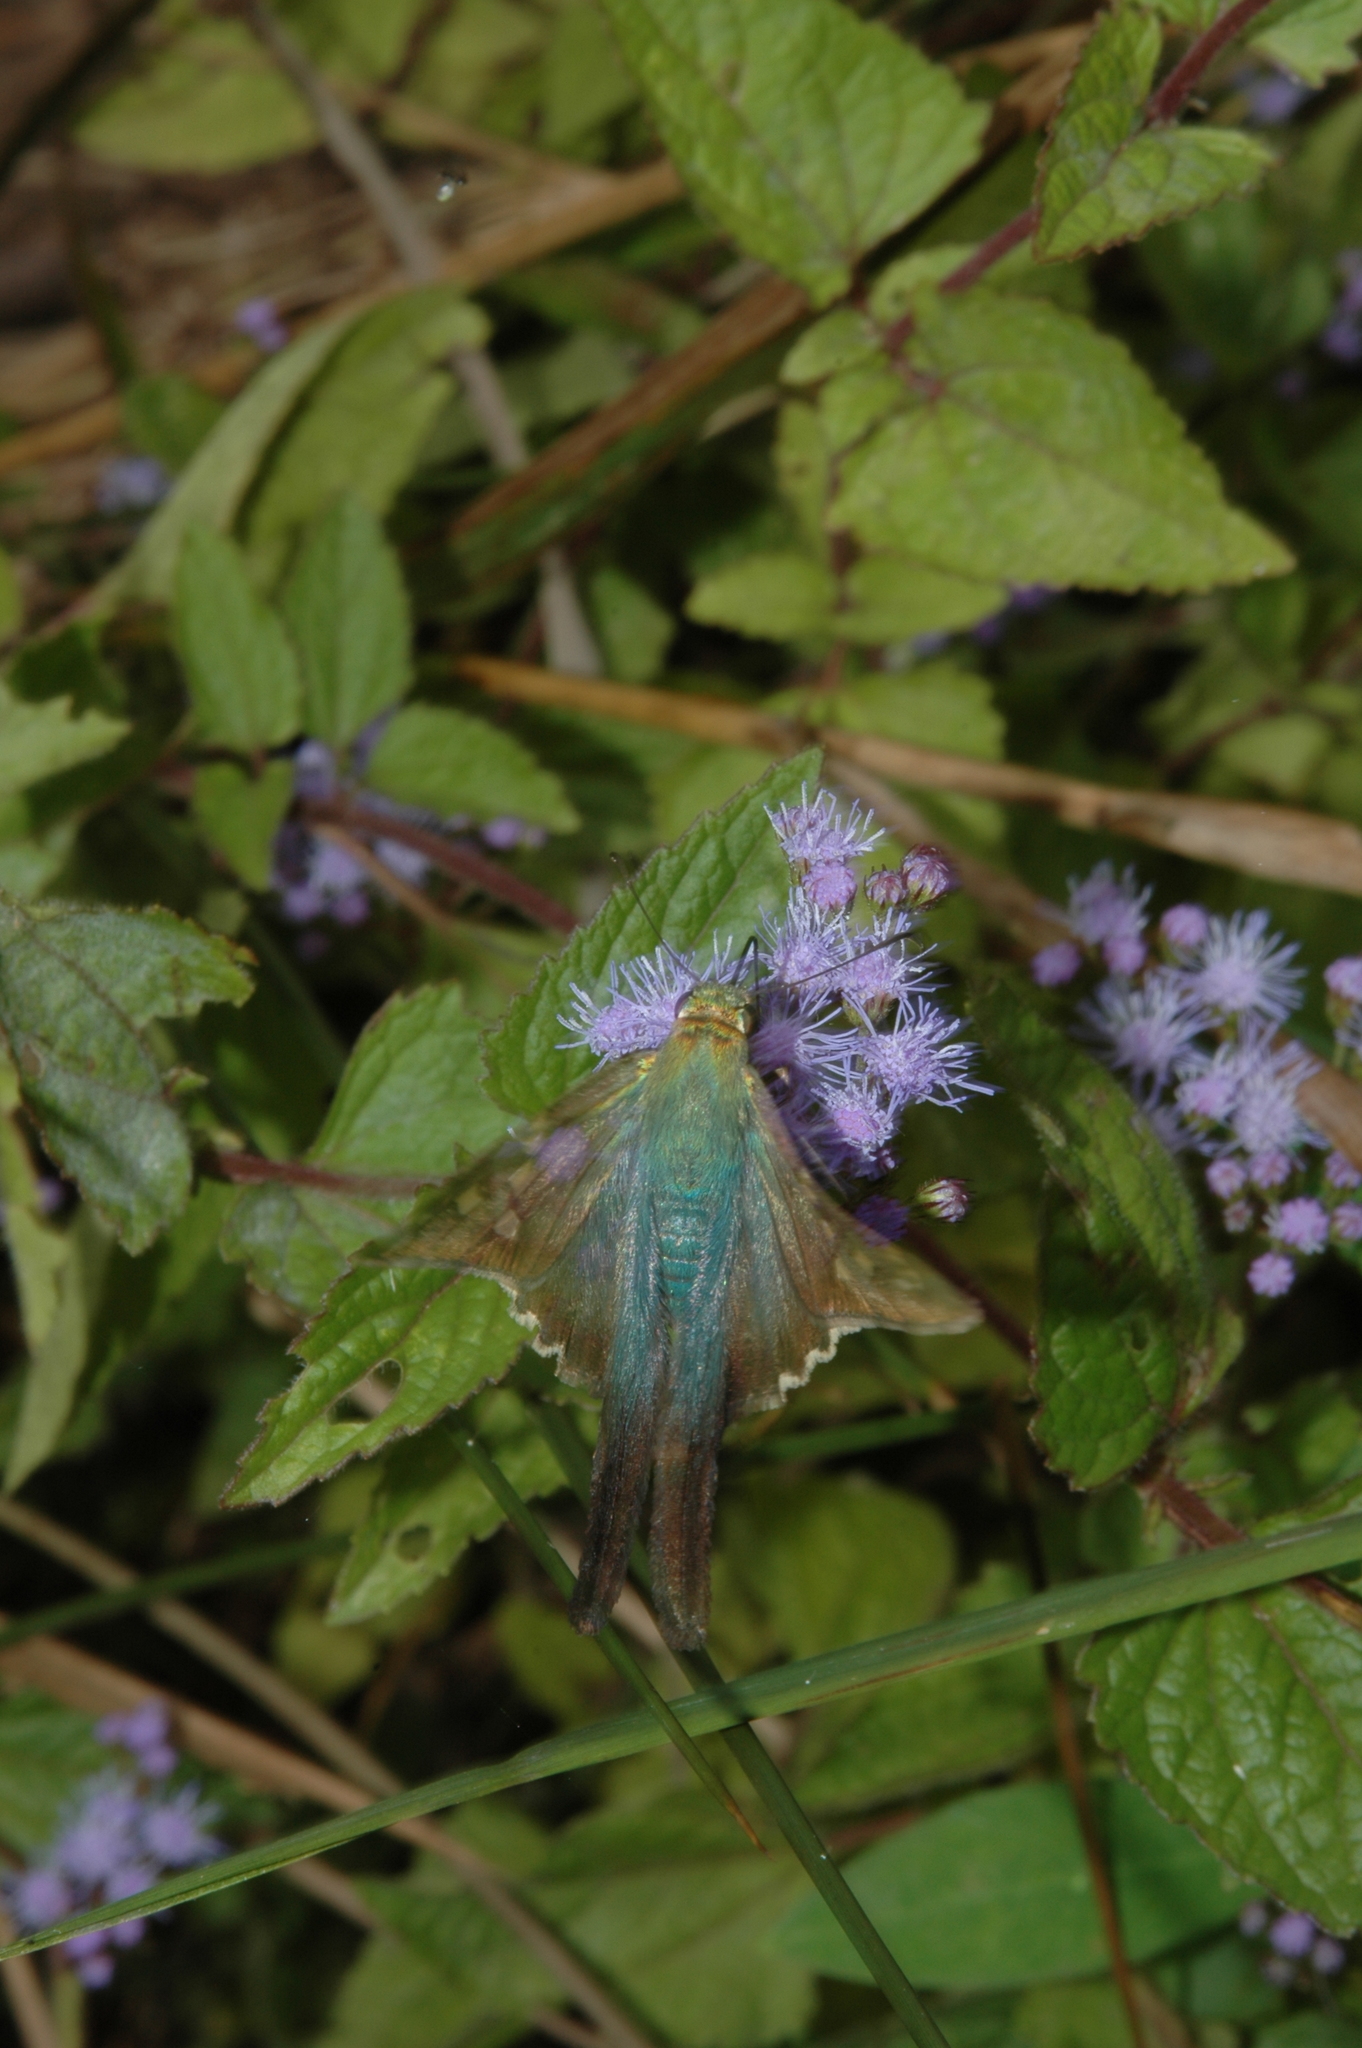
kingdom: Animalia
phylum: Arthropoda
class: Insecta
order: Lepidoptera
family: Hesperiidae
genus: Urbanus
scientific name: Urbanus proteus
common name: Long-tailed skipper
